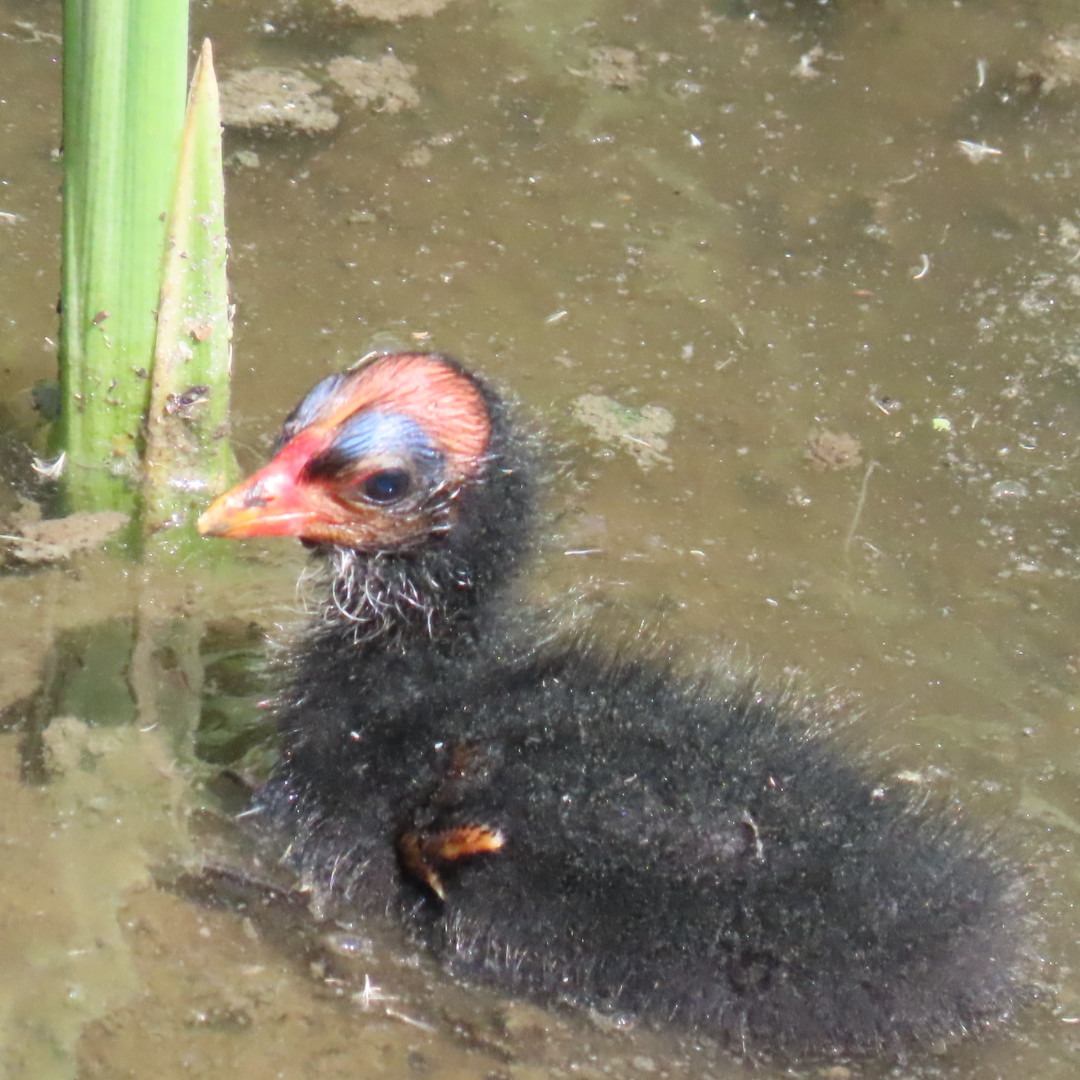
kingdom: Animalia
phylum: Chordata
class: Aves
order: Gruiformes
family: Rallidae
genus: Gallinula
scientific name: Gallinula chloropus
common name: Common moorhen
